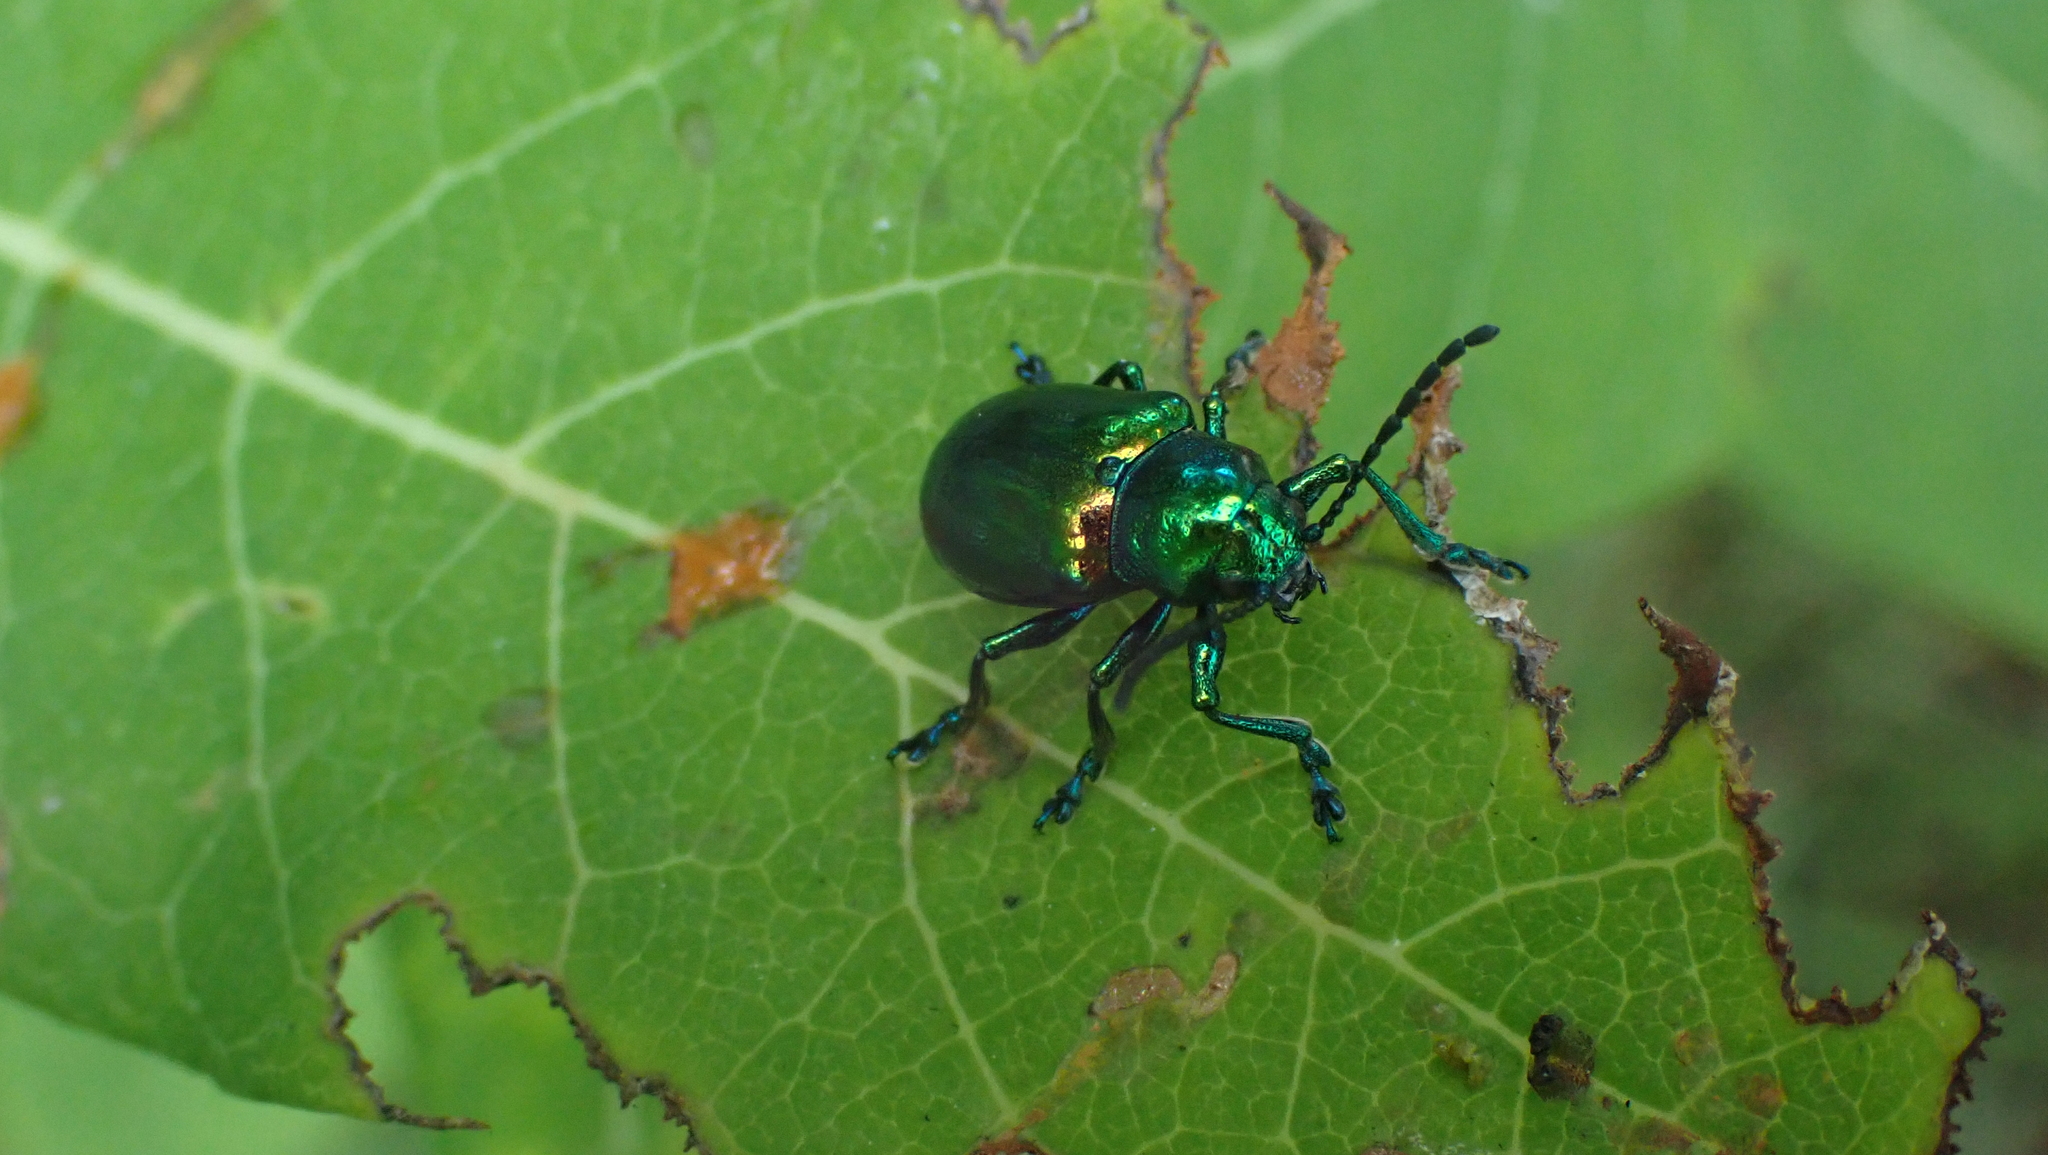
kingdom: Animalia
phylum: Arthropoda
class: Insecta
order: Coleoptera
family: Chrysomelidae
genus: Chrysochus
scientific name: Chrysochus auratus
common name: Dogbane leaf beetle
